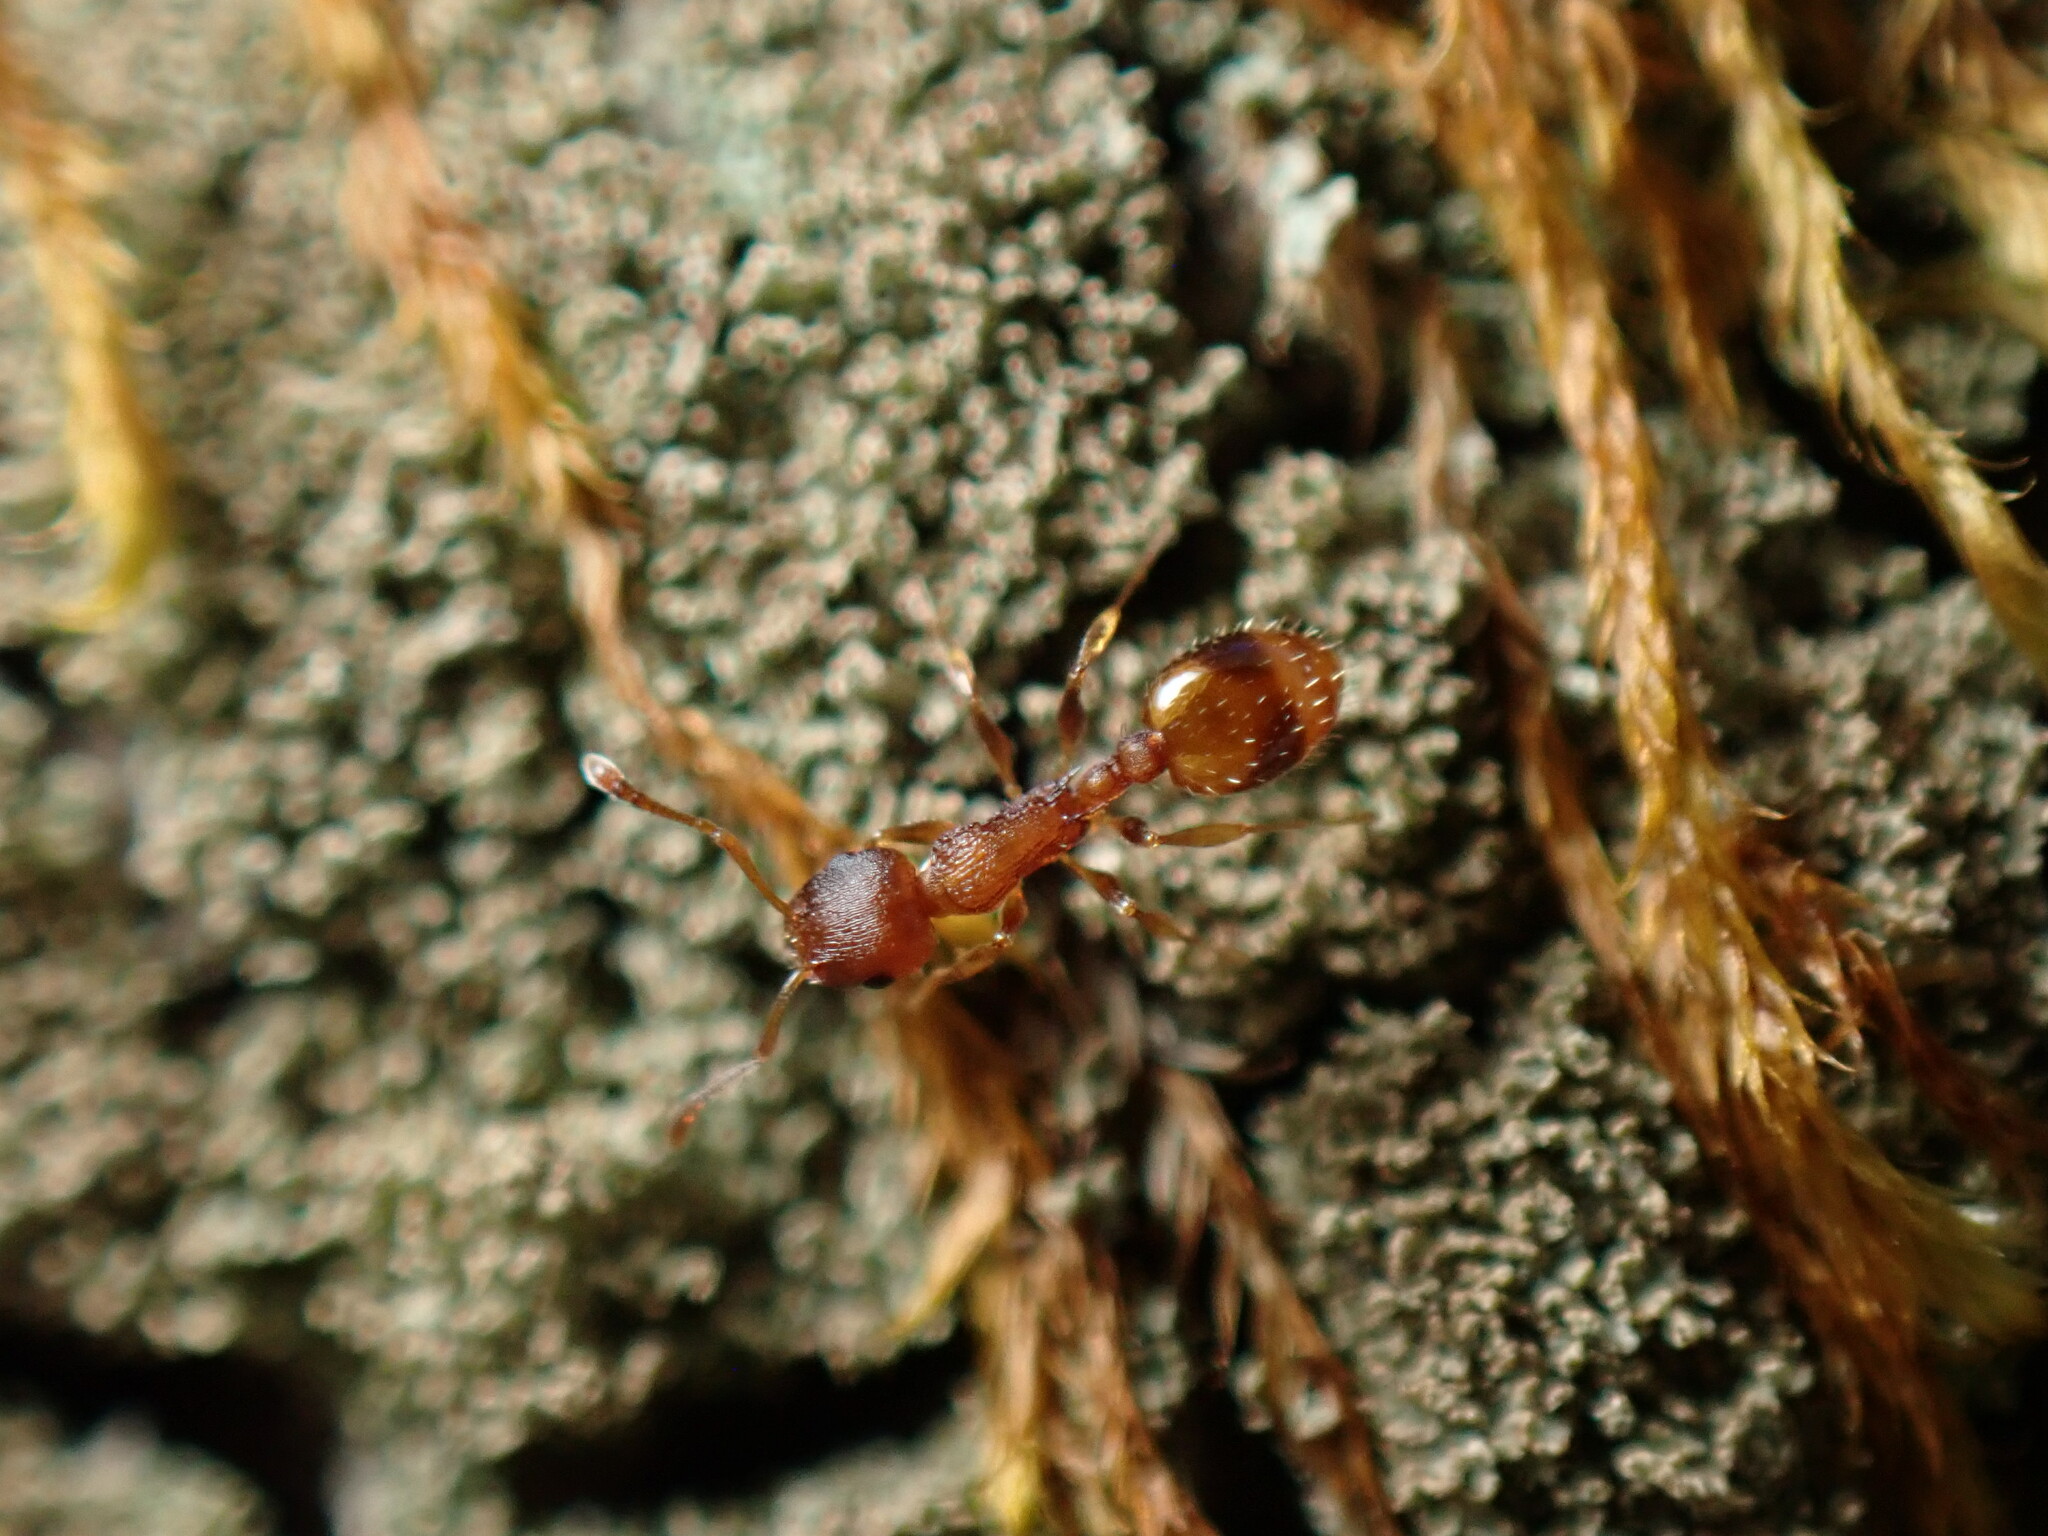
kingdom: Animalia
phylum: Arthropoda
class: Insecta
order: Hymenoptera
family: Formicidae
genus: Temnothorax
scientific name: Temnothorax curvispinosus
